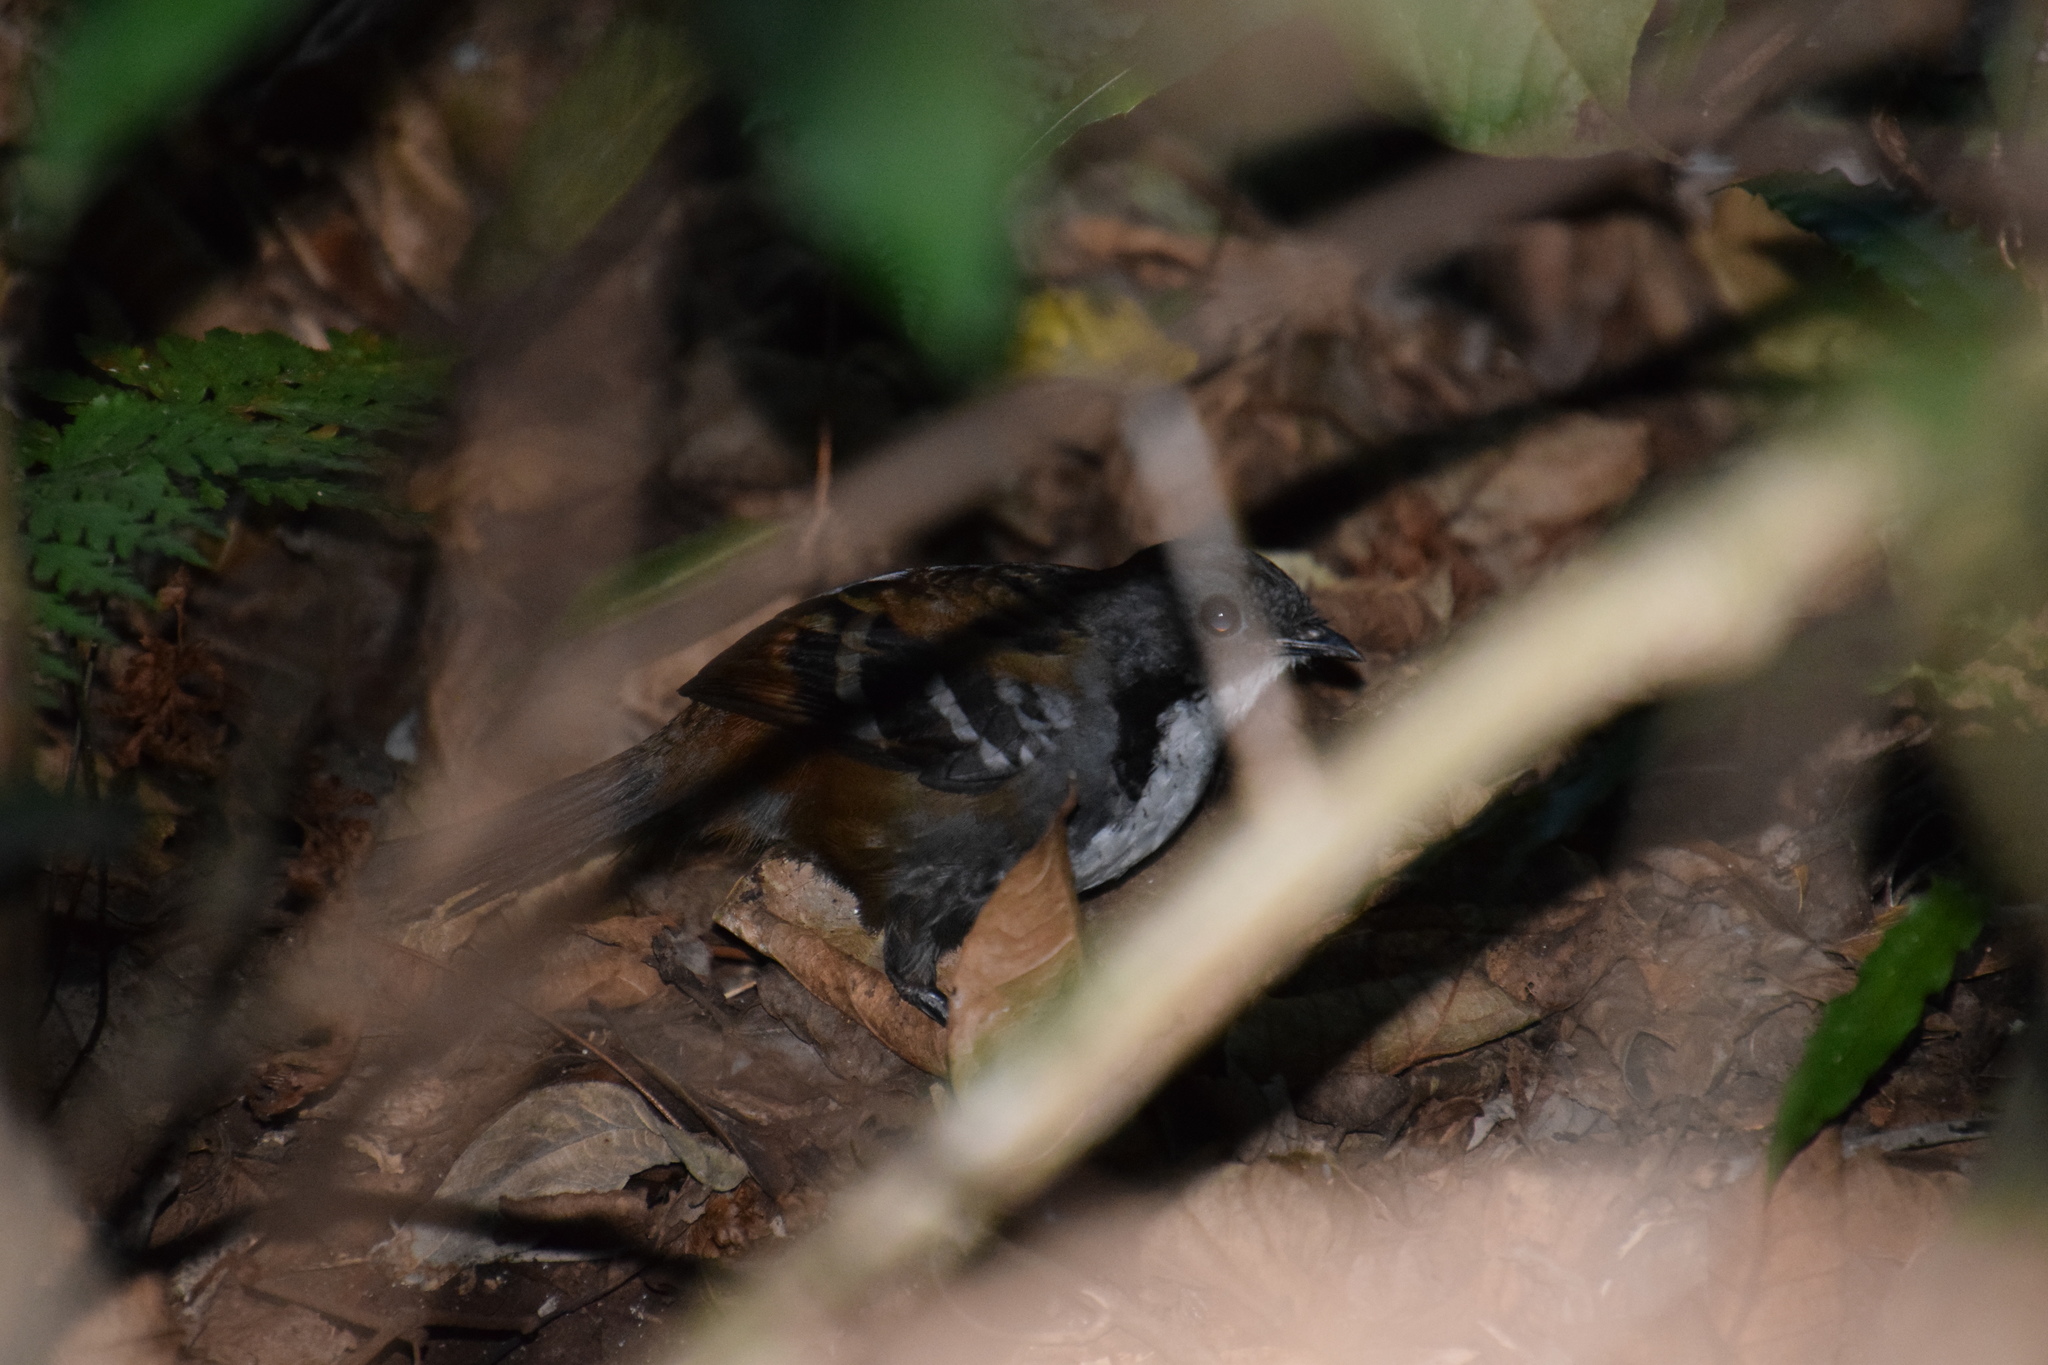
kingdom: Animalia
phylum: Chordata
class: Aves
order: Passeriformes
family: Orthonychidae
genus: Orthonyx
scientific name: Orthonyx temminckii
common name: Australian logrunner
